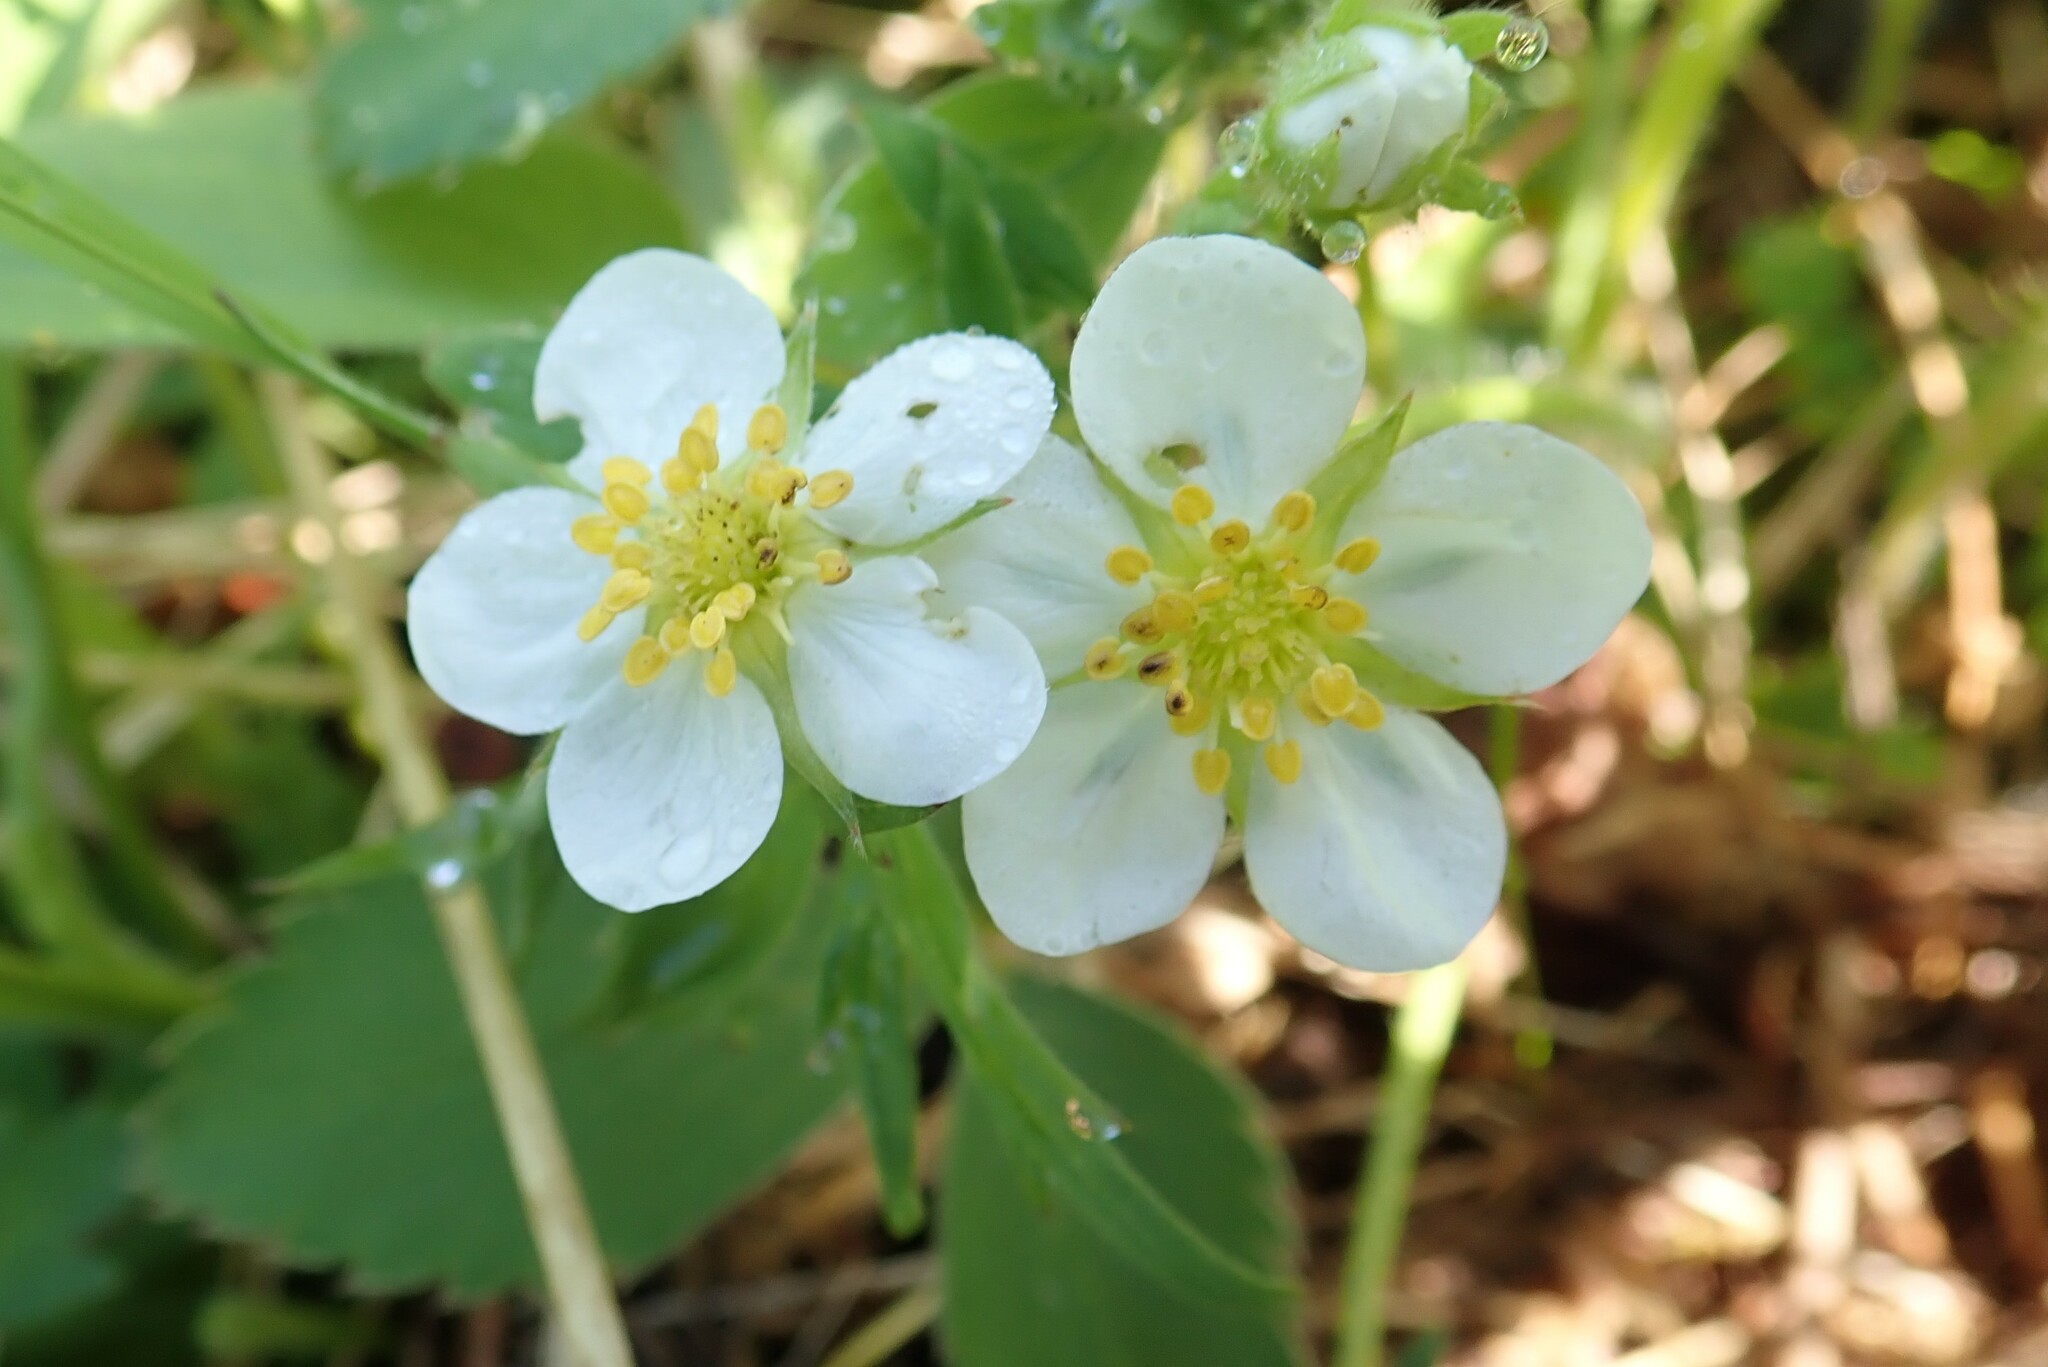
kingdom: Plantae
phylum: Tracheophyta
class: Magnoliopsida
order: Rosales
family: Rosaceae
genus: Fragaria
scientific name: Fragaria virginiana
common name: Thickleaved wild strawberry
